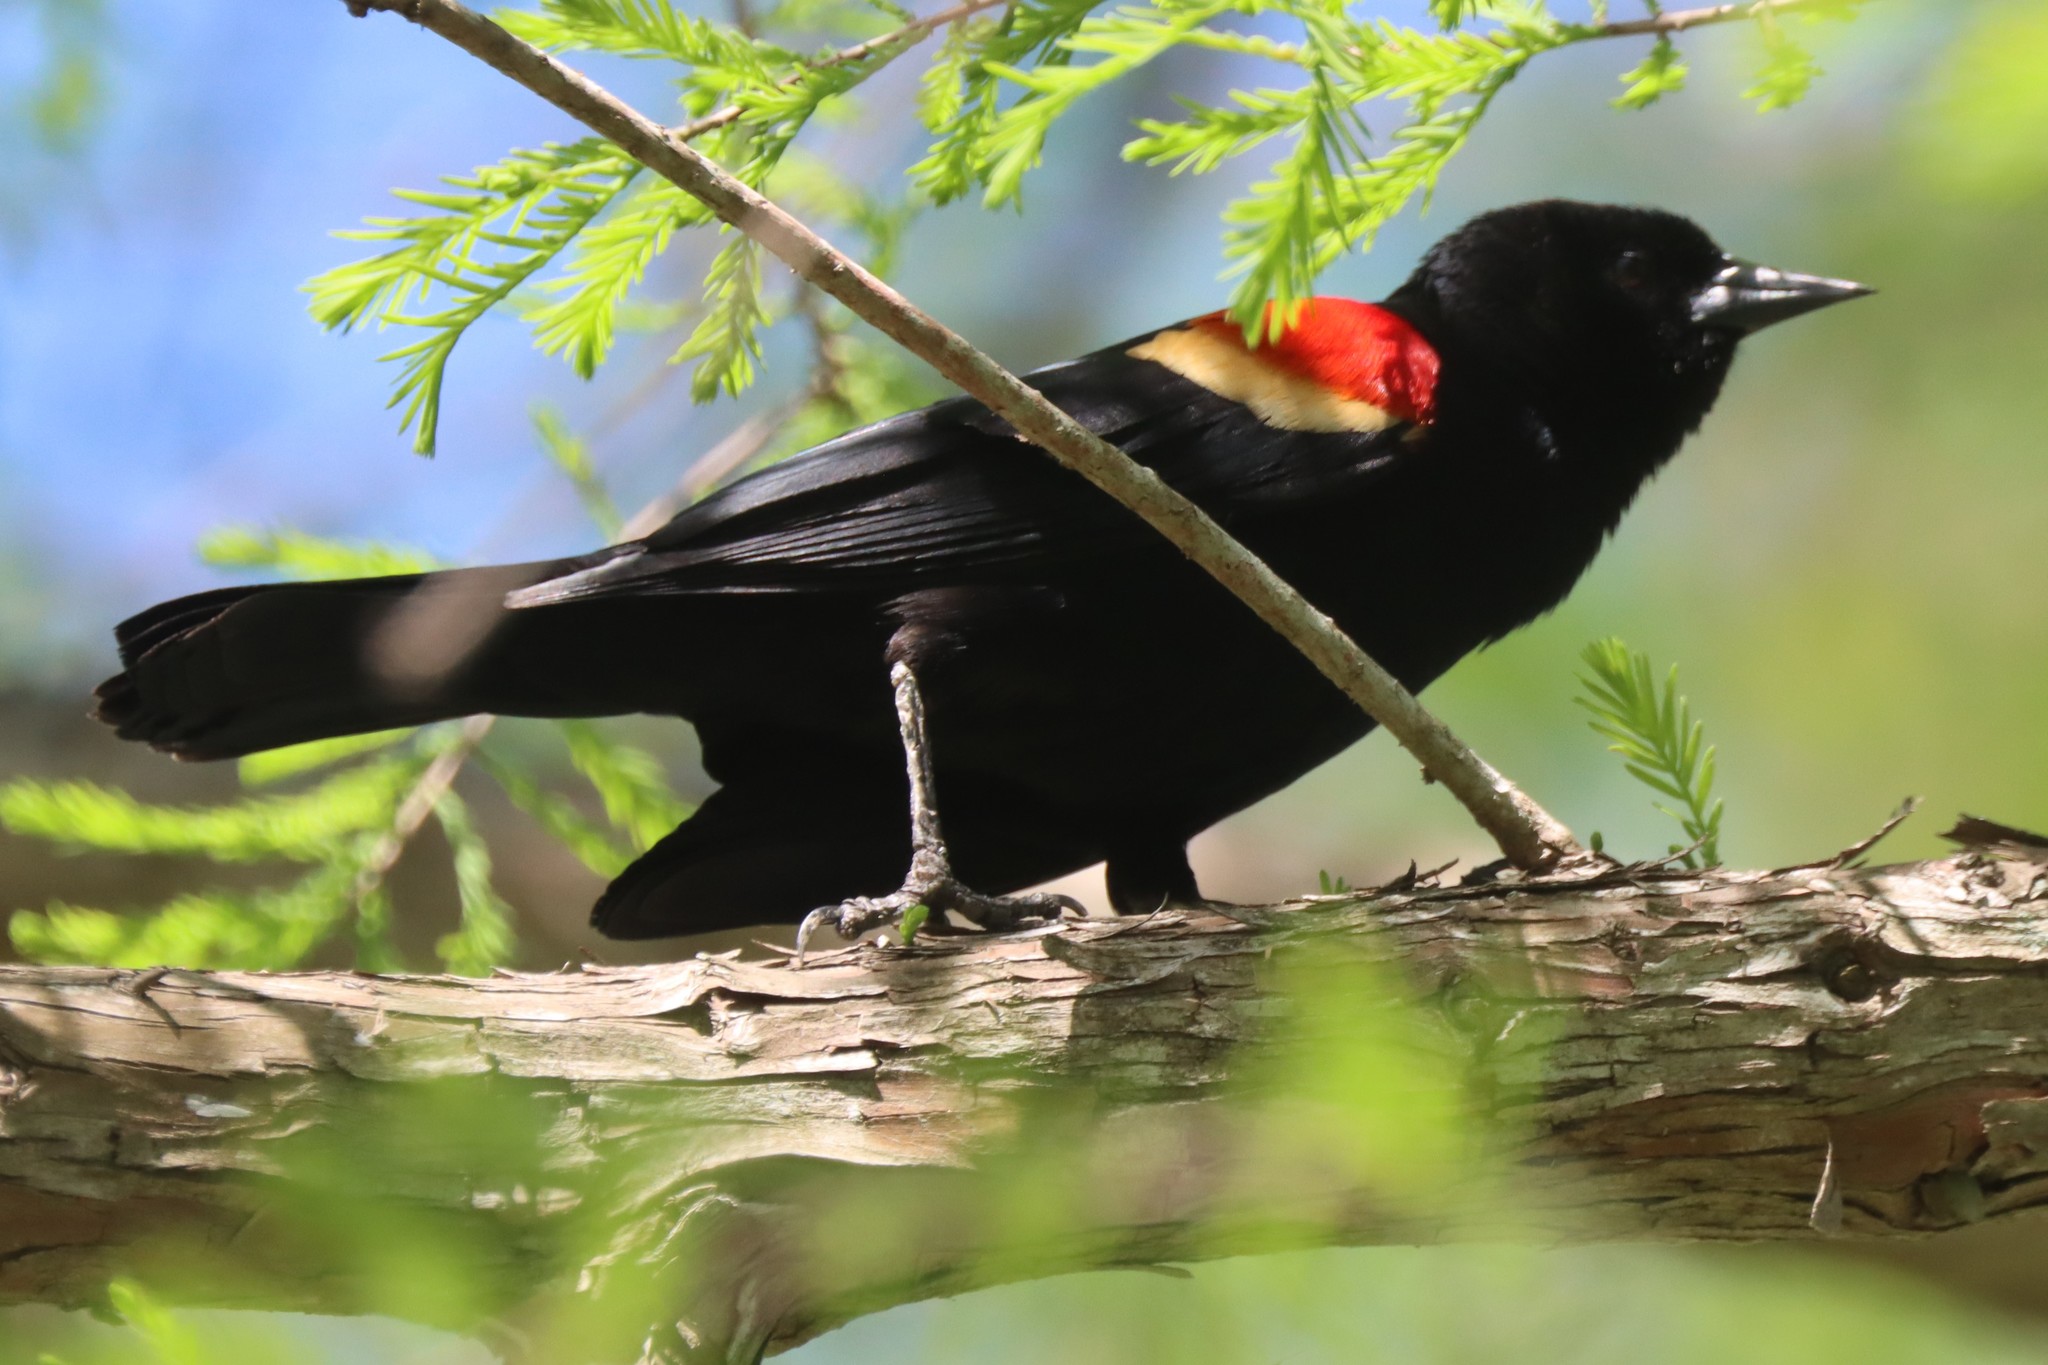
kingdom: Animalia
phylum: Chordata
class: Aves
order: Passeriformes
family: Icteridae
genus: Agelaius
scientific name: Agelaius phoeniceus
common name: Red-winged blackbird
